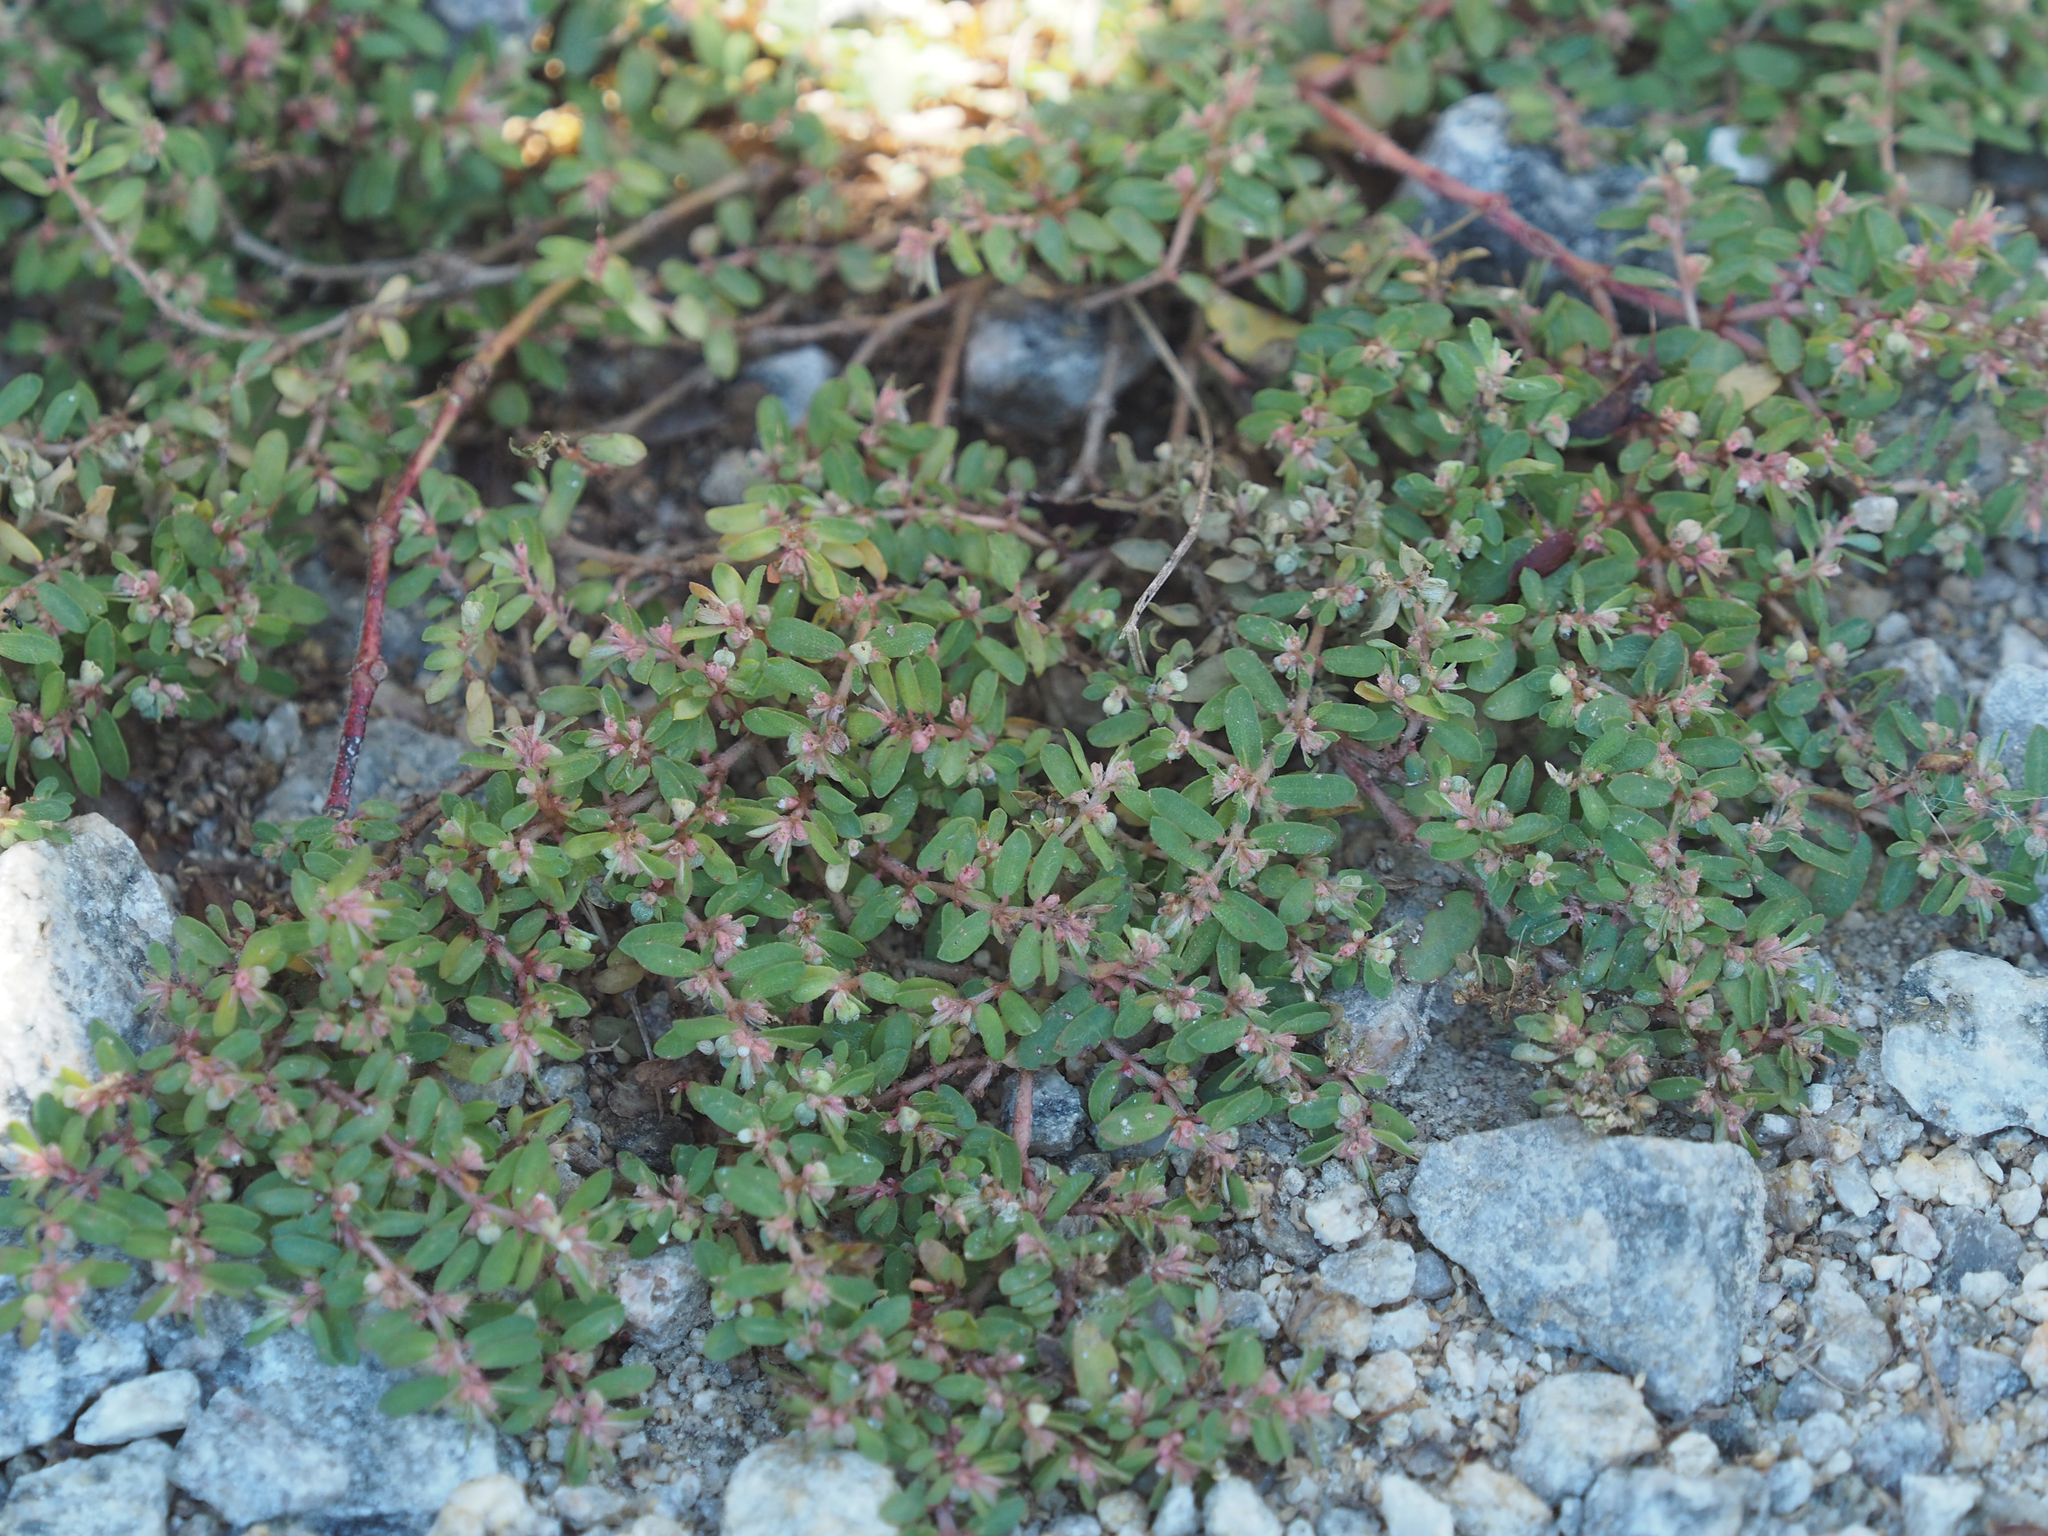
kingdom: Plantae
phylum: Tracheophyta
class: Magnoliopsida
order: Malpighiales
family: Euphorbiaceae
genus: Euphorbia
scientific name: Euphorbia maculata
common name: Spotted spurge
